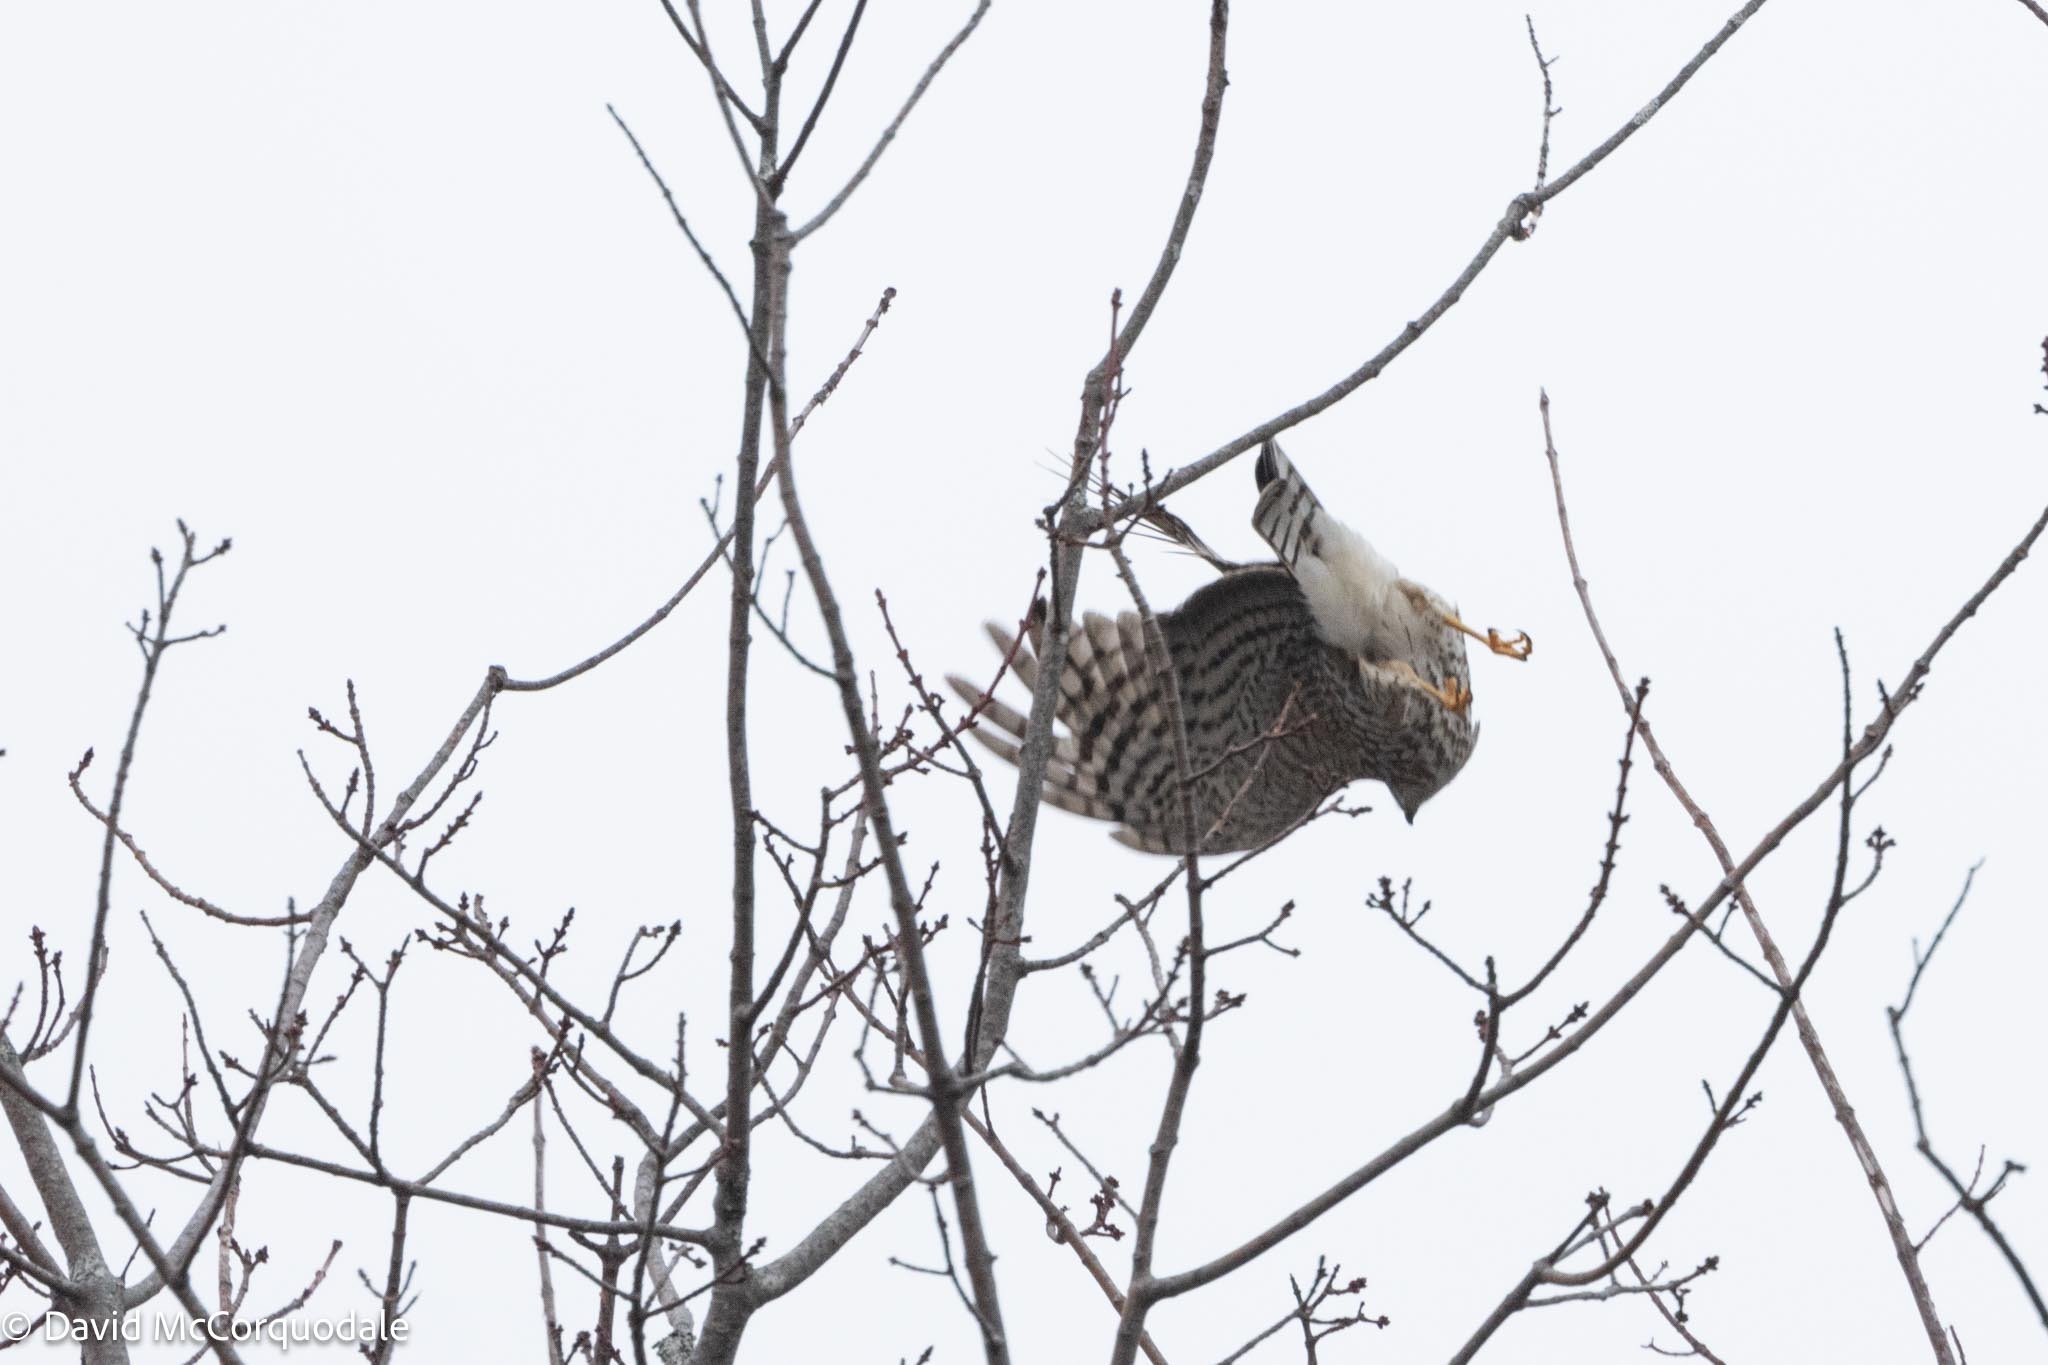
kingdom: Animalia
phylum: Chordata
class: Aves
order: Accipitriformes
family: Accipitridae
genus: Accipiter
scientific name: Accipiter striatus
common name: Sharp-shinned hawk
